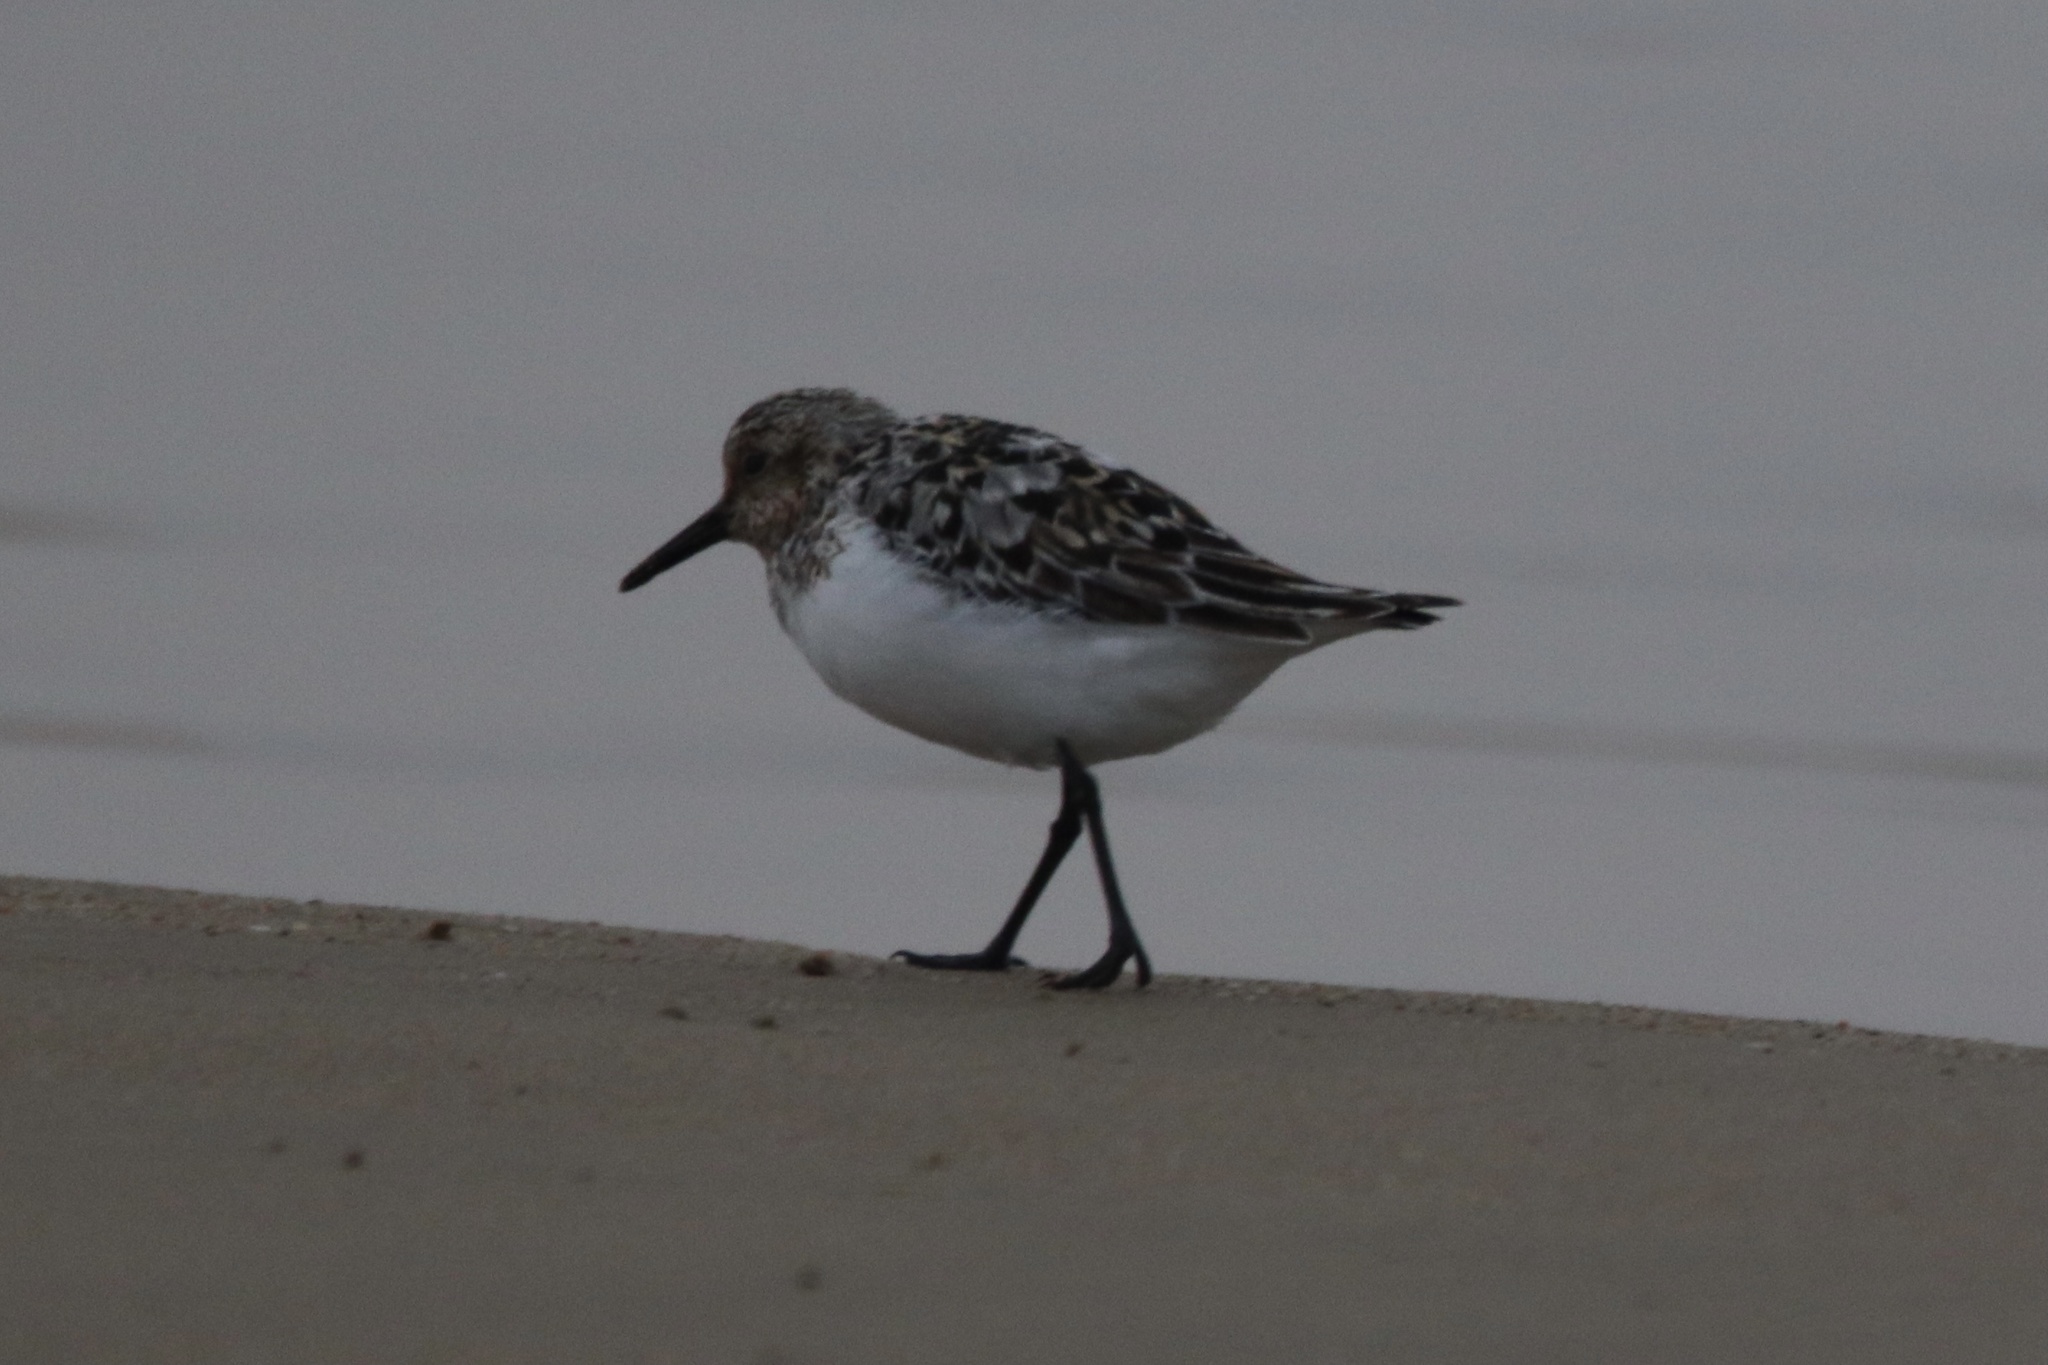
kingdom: Animalia
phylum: Chordata
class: Aves
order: Charadriiformes
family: Scolopacidae
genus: Calidris
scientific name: Calidris alba
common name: Sanderling
